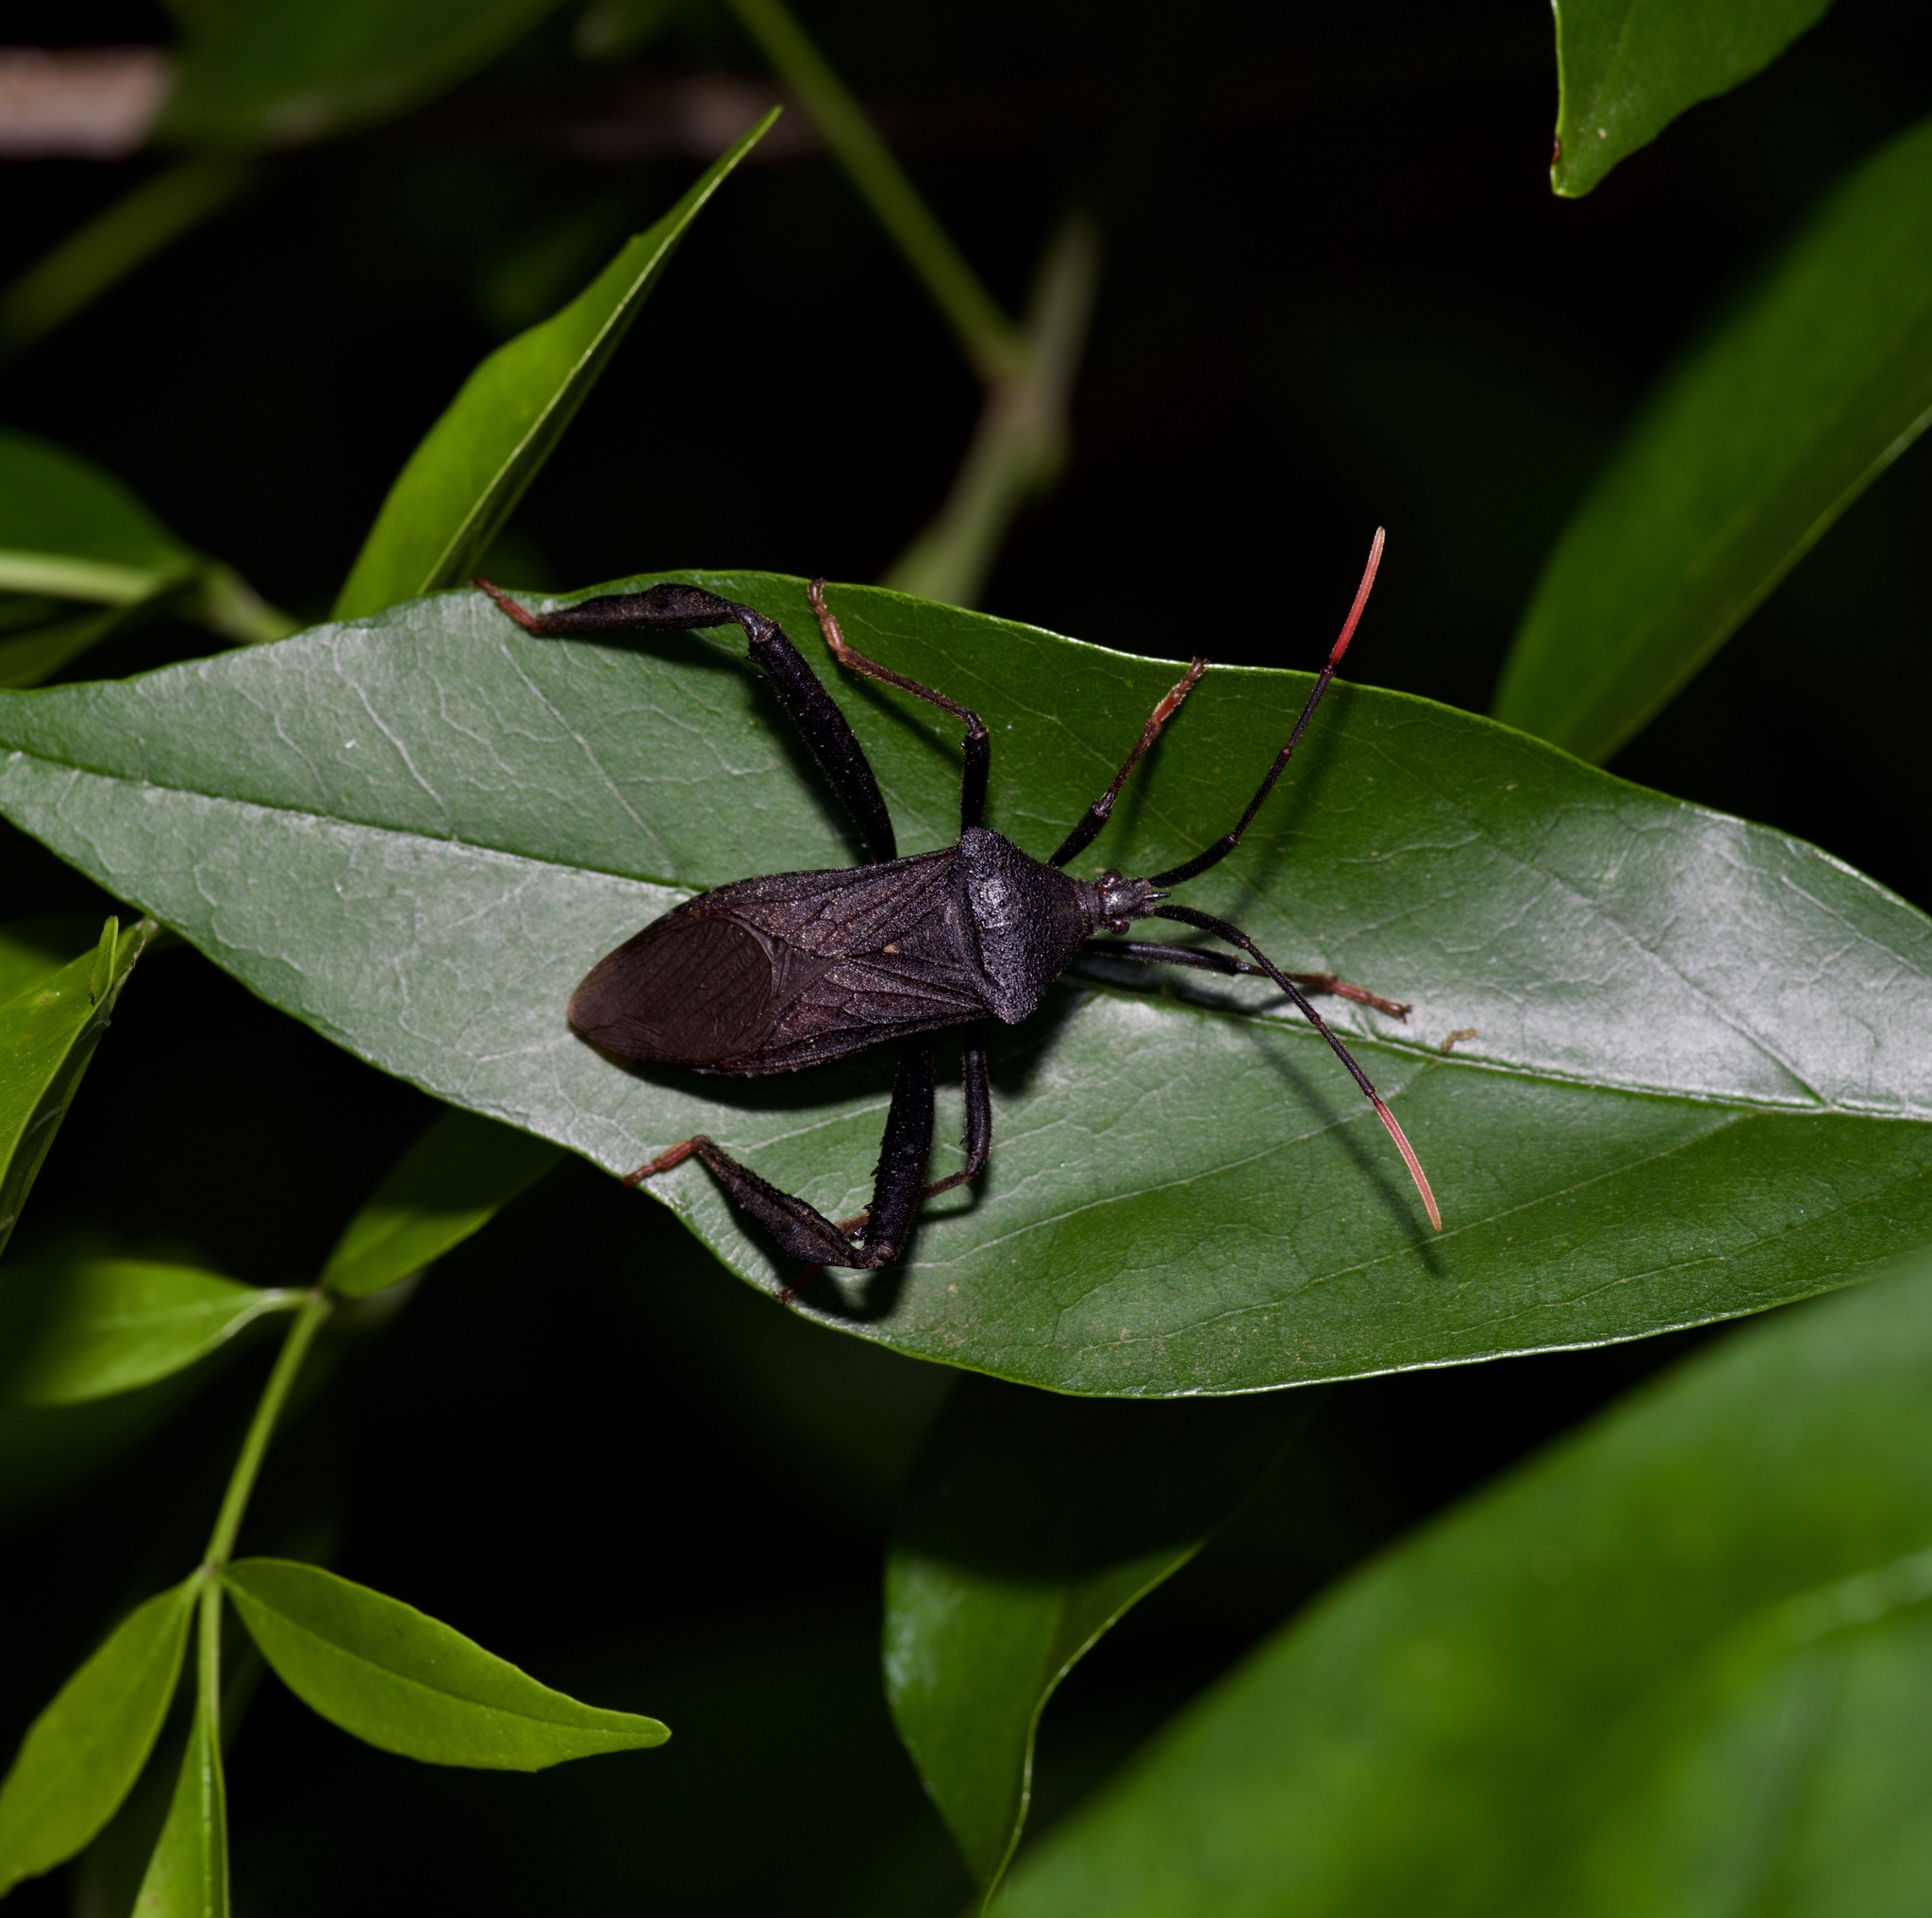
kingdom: Animalia
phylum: Arthropoda
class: Insecta
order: Hemiptera
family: Coreidae
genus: Acanthocephala
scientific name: Acanthocephala terminalis
